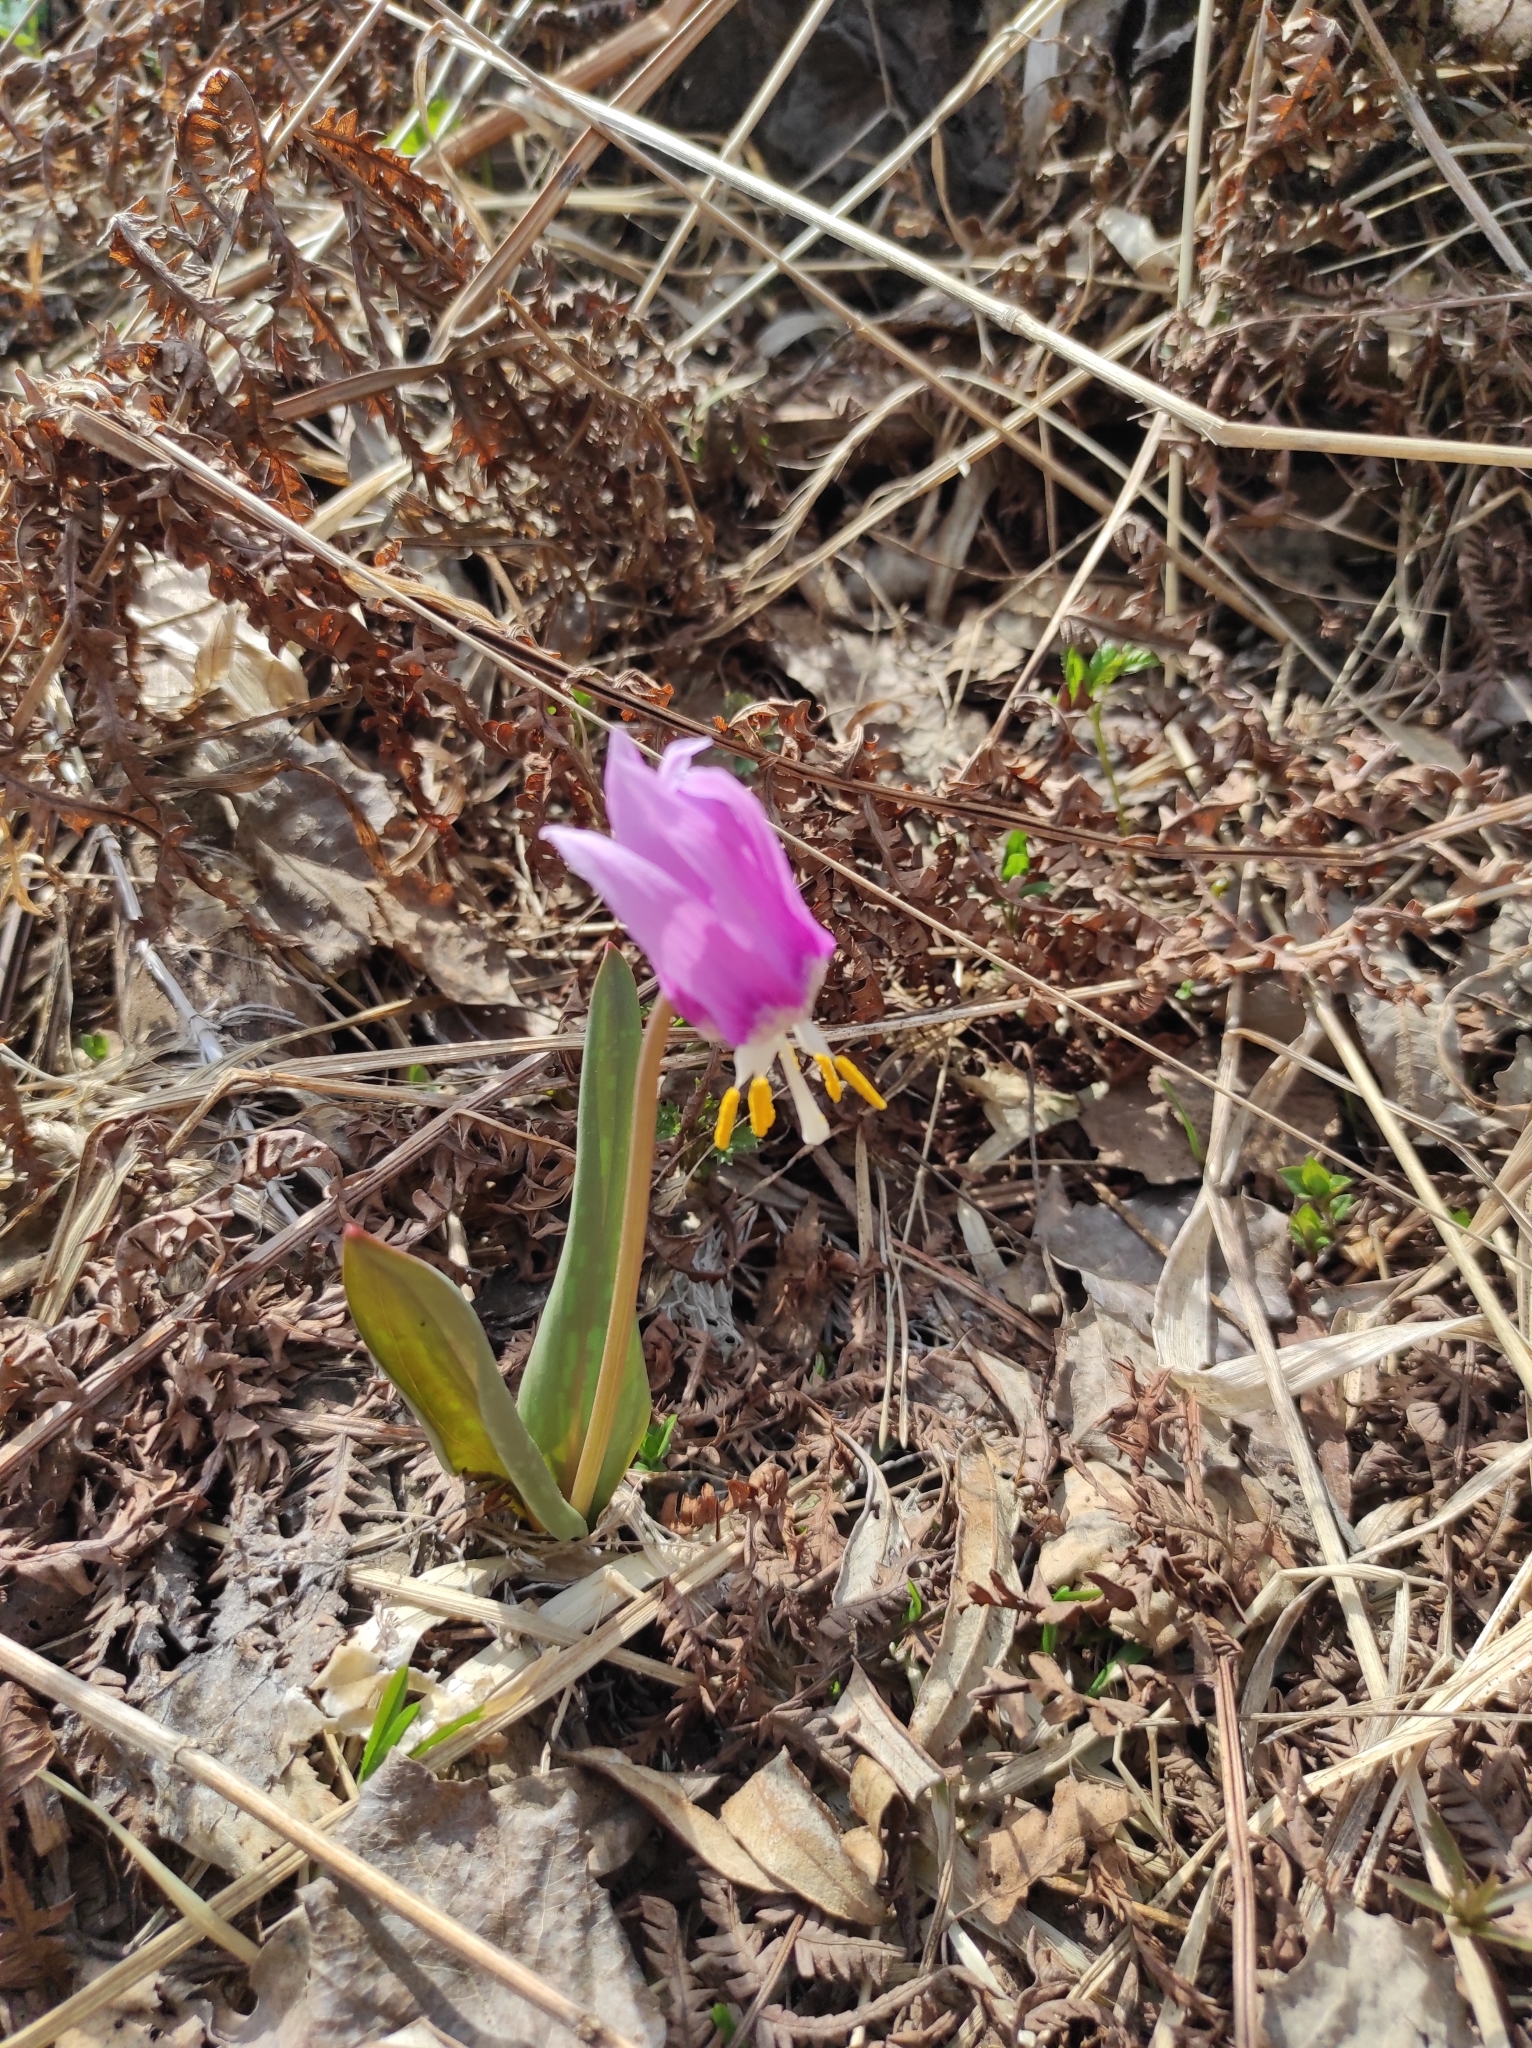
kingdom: Plantae
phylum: Tracheophyta
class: Liliopsida
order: Liliales
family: Liliaceae
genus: Erythronium
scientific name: Erythronium sibiricum
